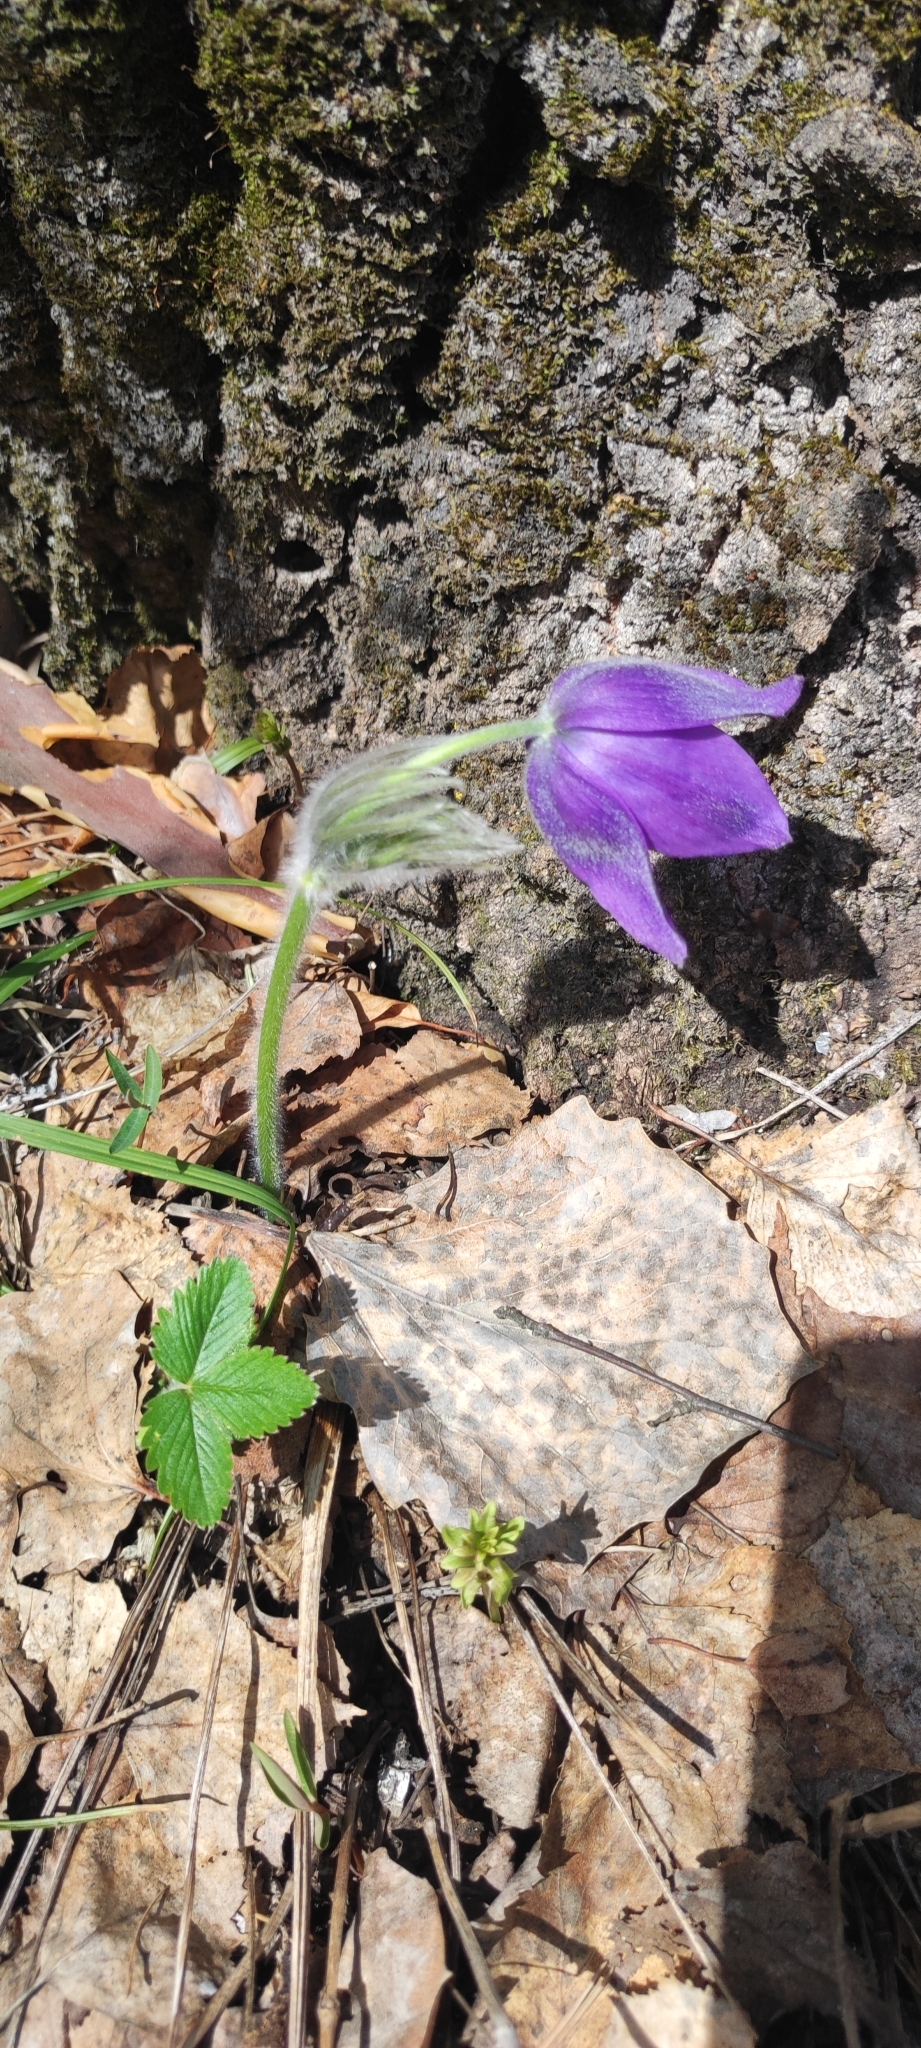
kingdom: Plantae
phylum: Tracheophyta
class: Magnoliopsida
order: Ranunculales
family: Ranunculaceae
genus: Pulsatilla
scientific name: Pulsatilla patens
